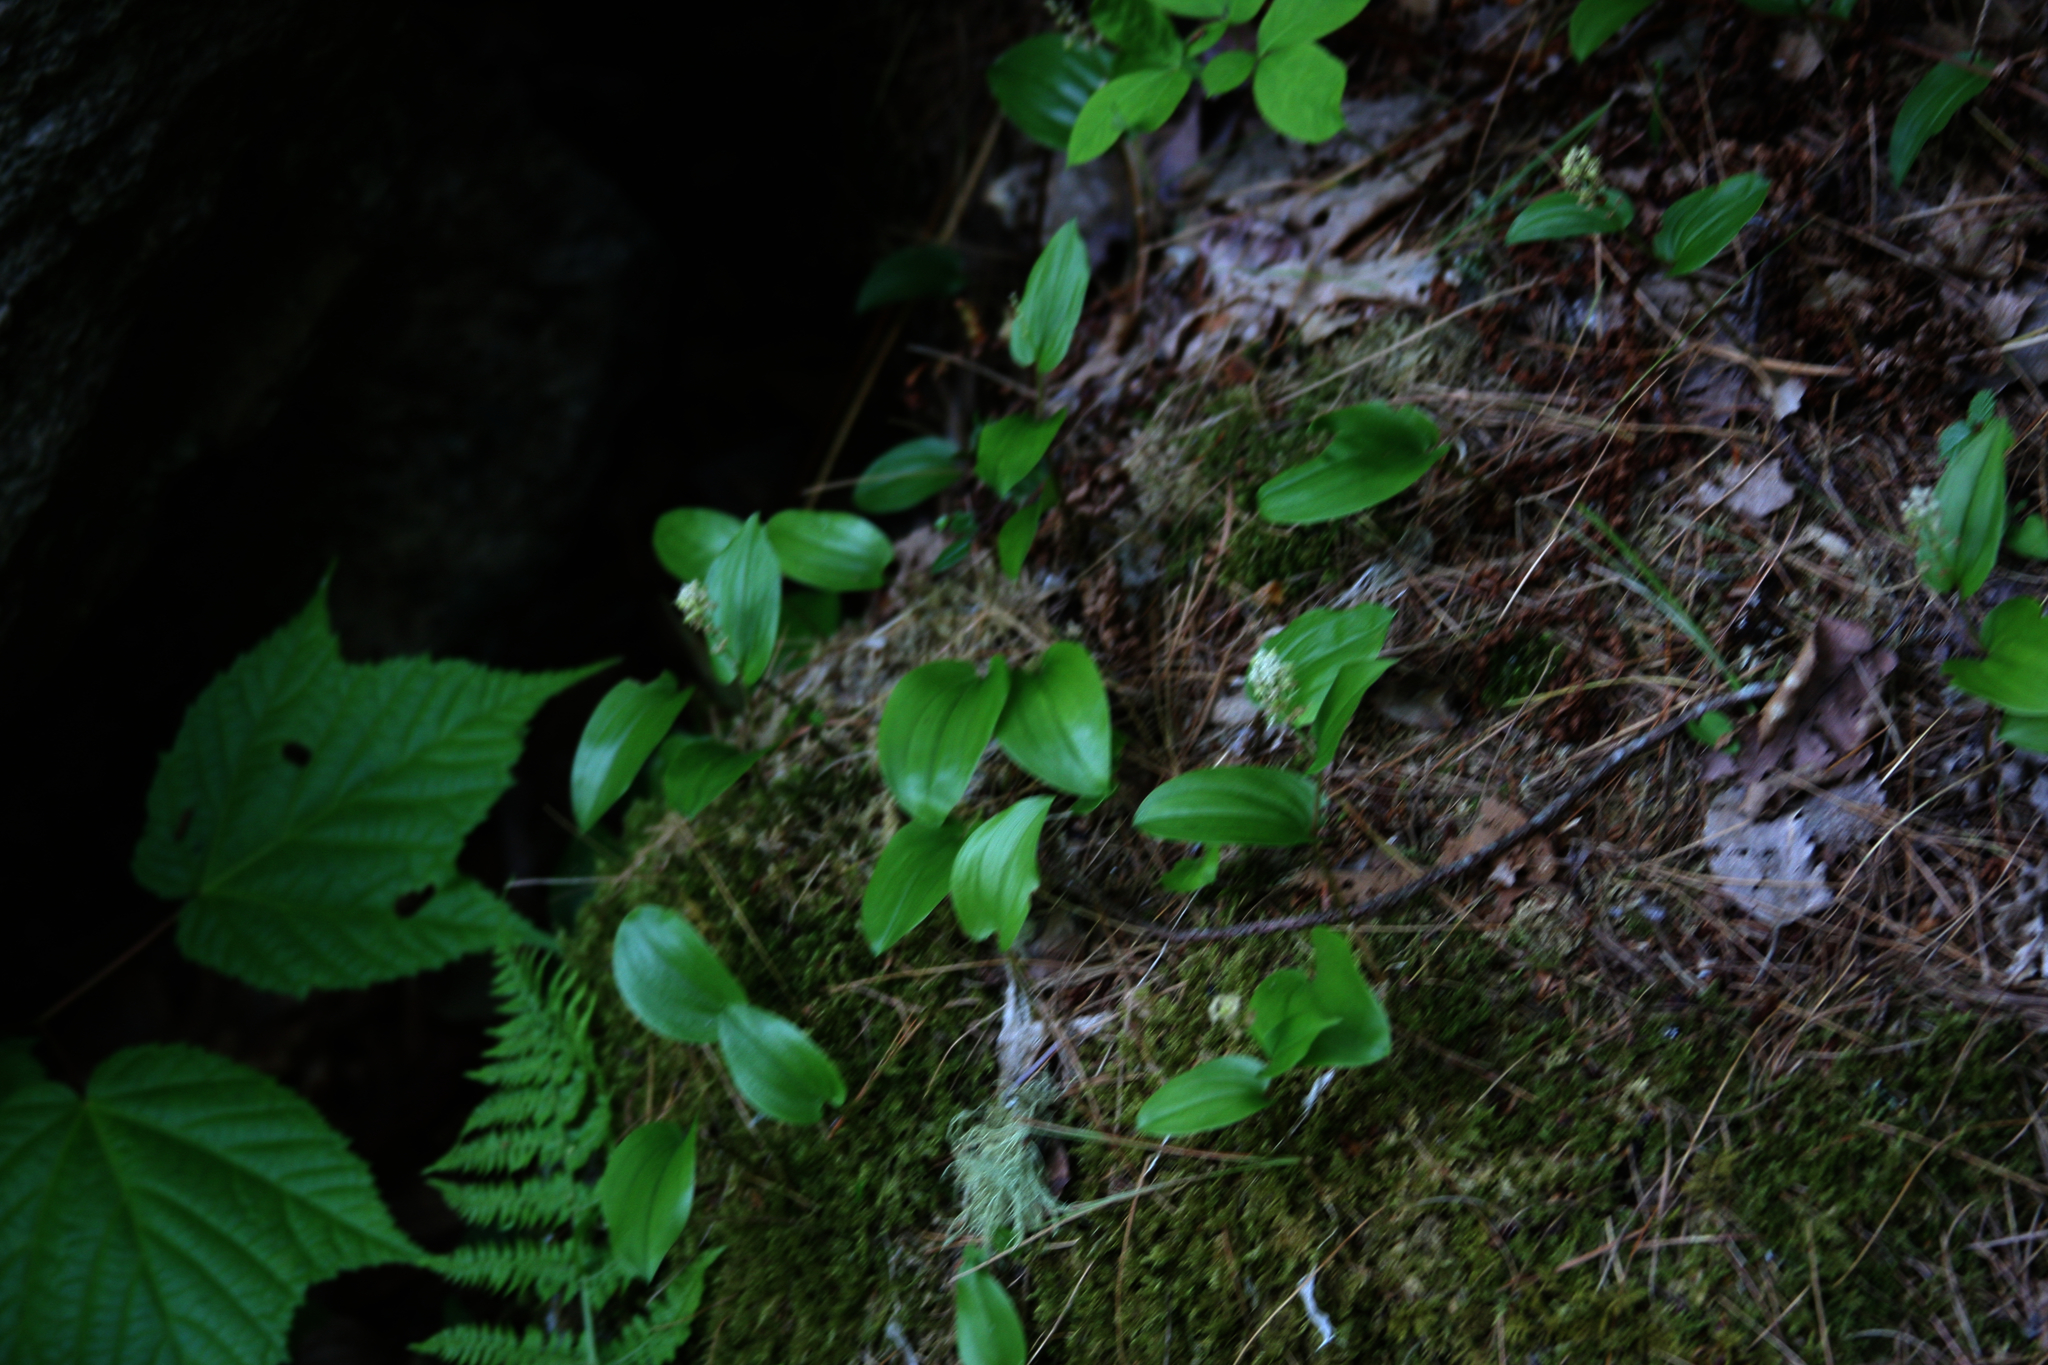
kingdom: Plantae
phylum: Tracheophyta
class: Liliopsida
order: Asparagales
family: Asparagaceae
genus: Maianthemum
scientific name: Maianthemum canadense
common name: False lily-of-the-valley
